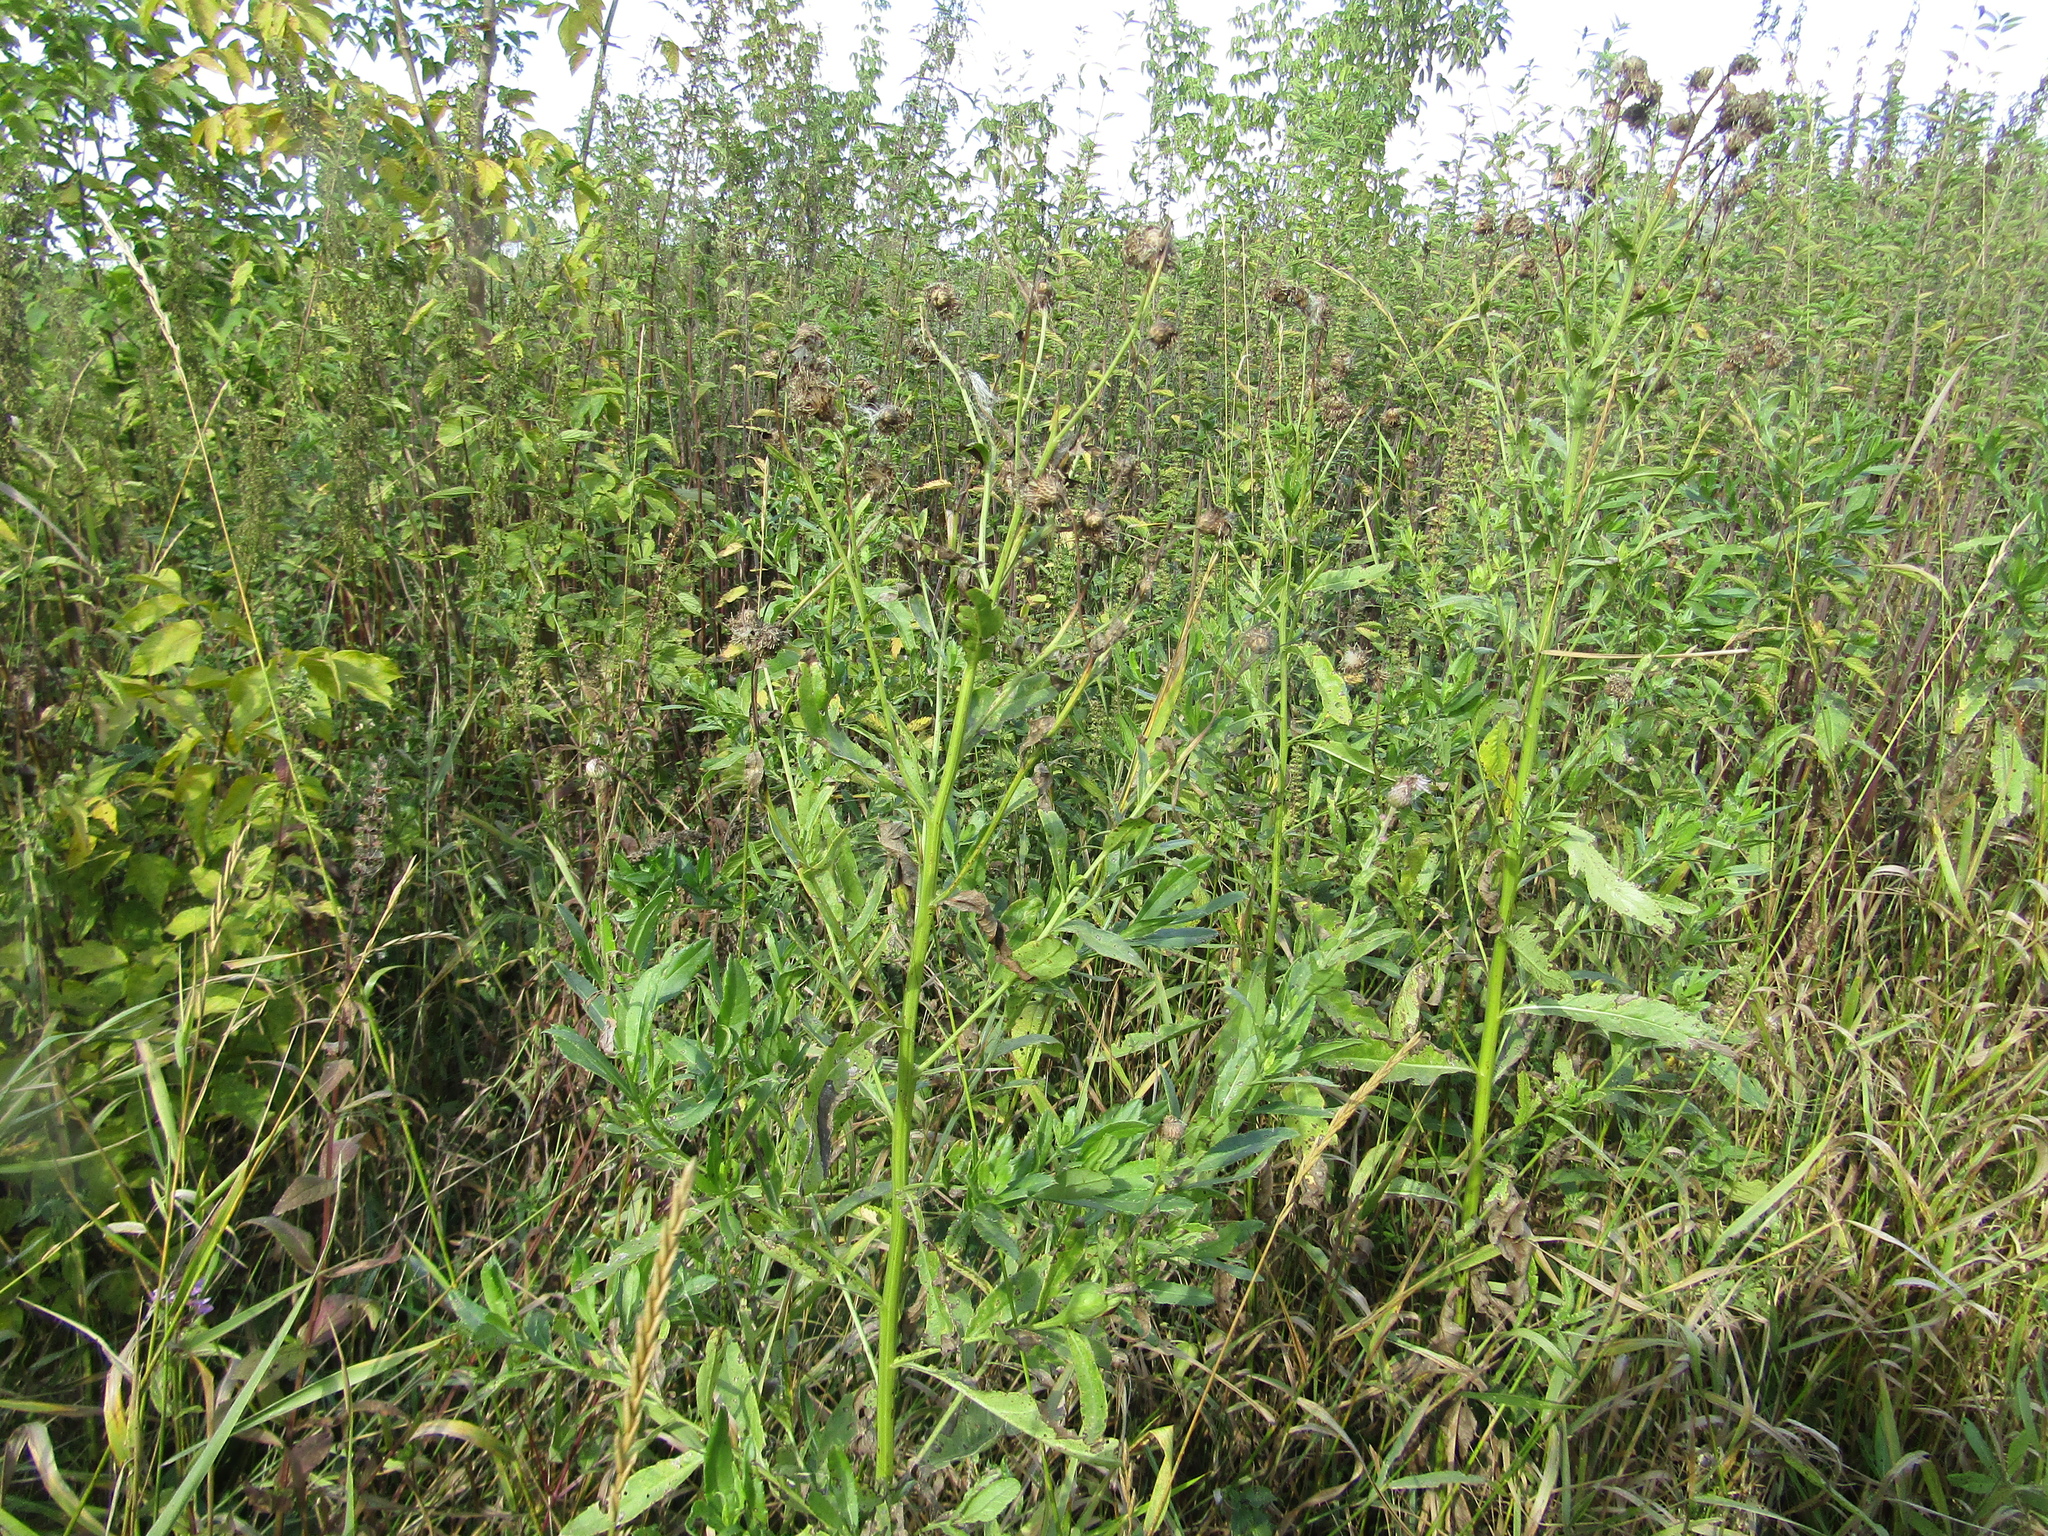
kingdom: Plantae
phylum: Tracheophyta
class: Magnoliopsida
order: Asterales
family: Asteraceae
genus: Cirsium
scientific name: Cirsium arvense
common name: Creeping thistle
